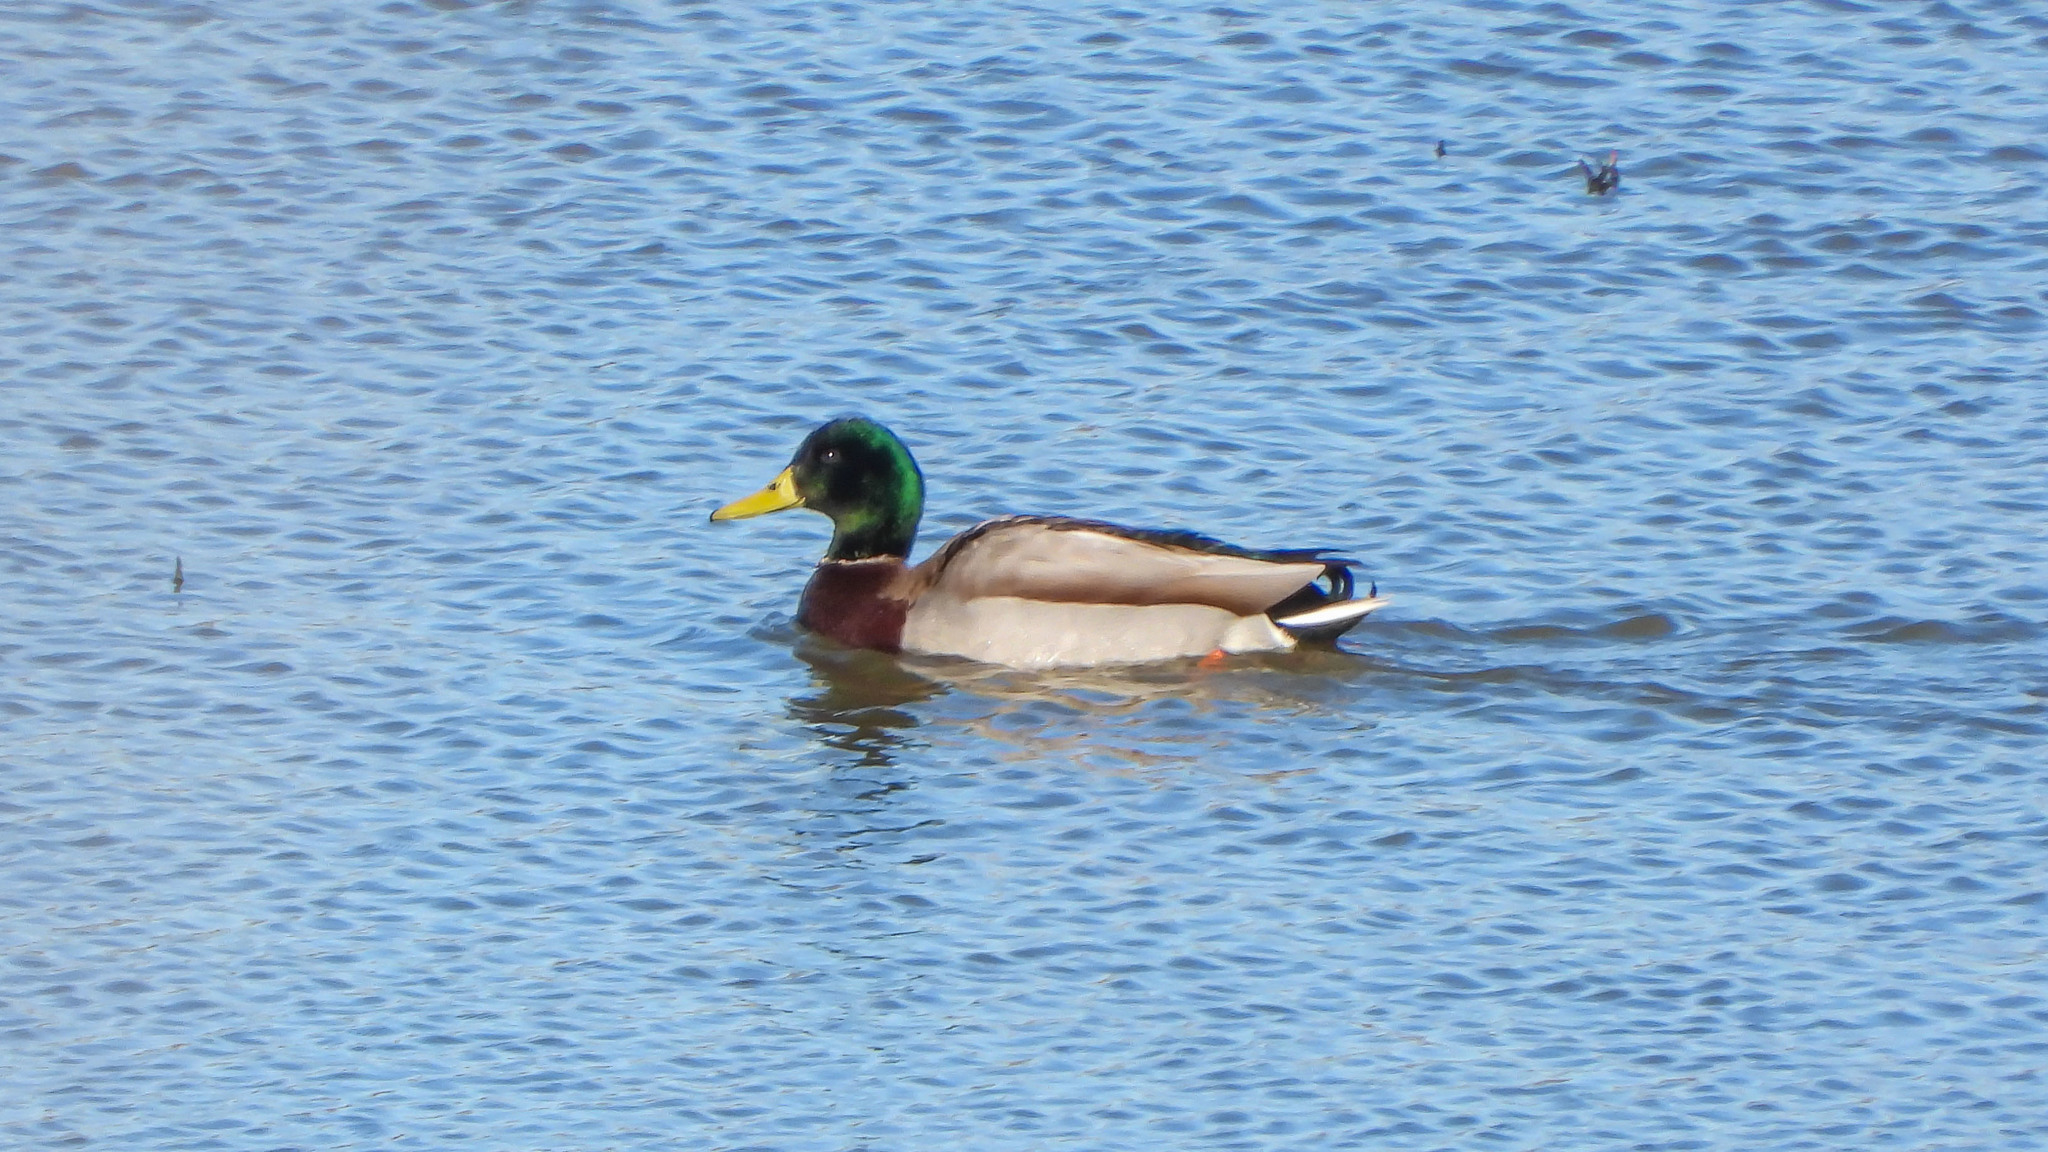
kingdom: Animalia
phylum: Chordata
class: Aves
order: Anseriformes
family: Anatidae
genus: Anas
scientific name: Anas platyrhynchos
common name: Mallard
